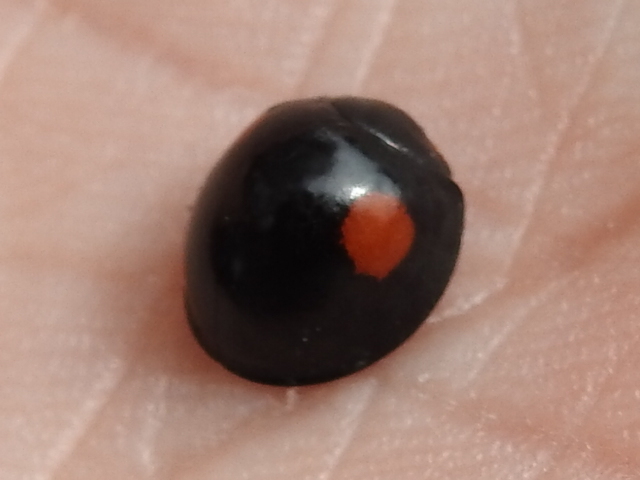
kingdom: Animalia
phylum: Arthropoda
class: Insecta
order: Coleoptera
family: Coccinellidae
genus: Axion
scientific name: Axion plagiatum
